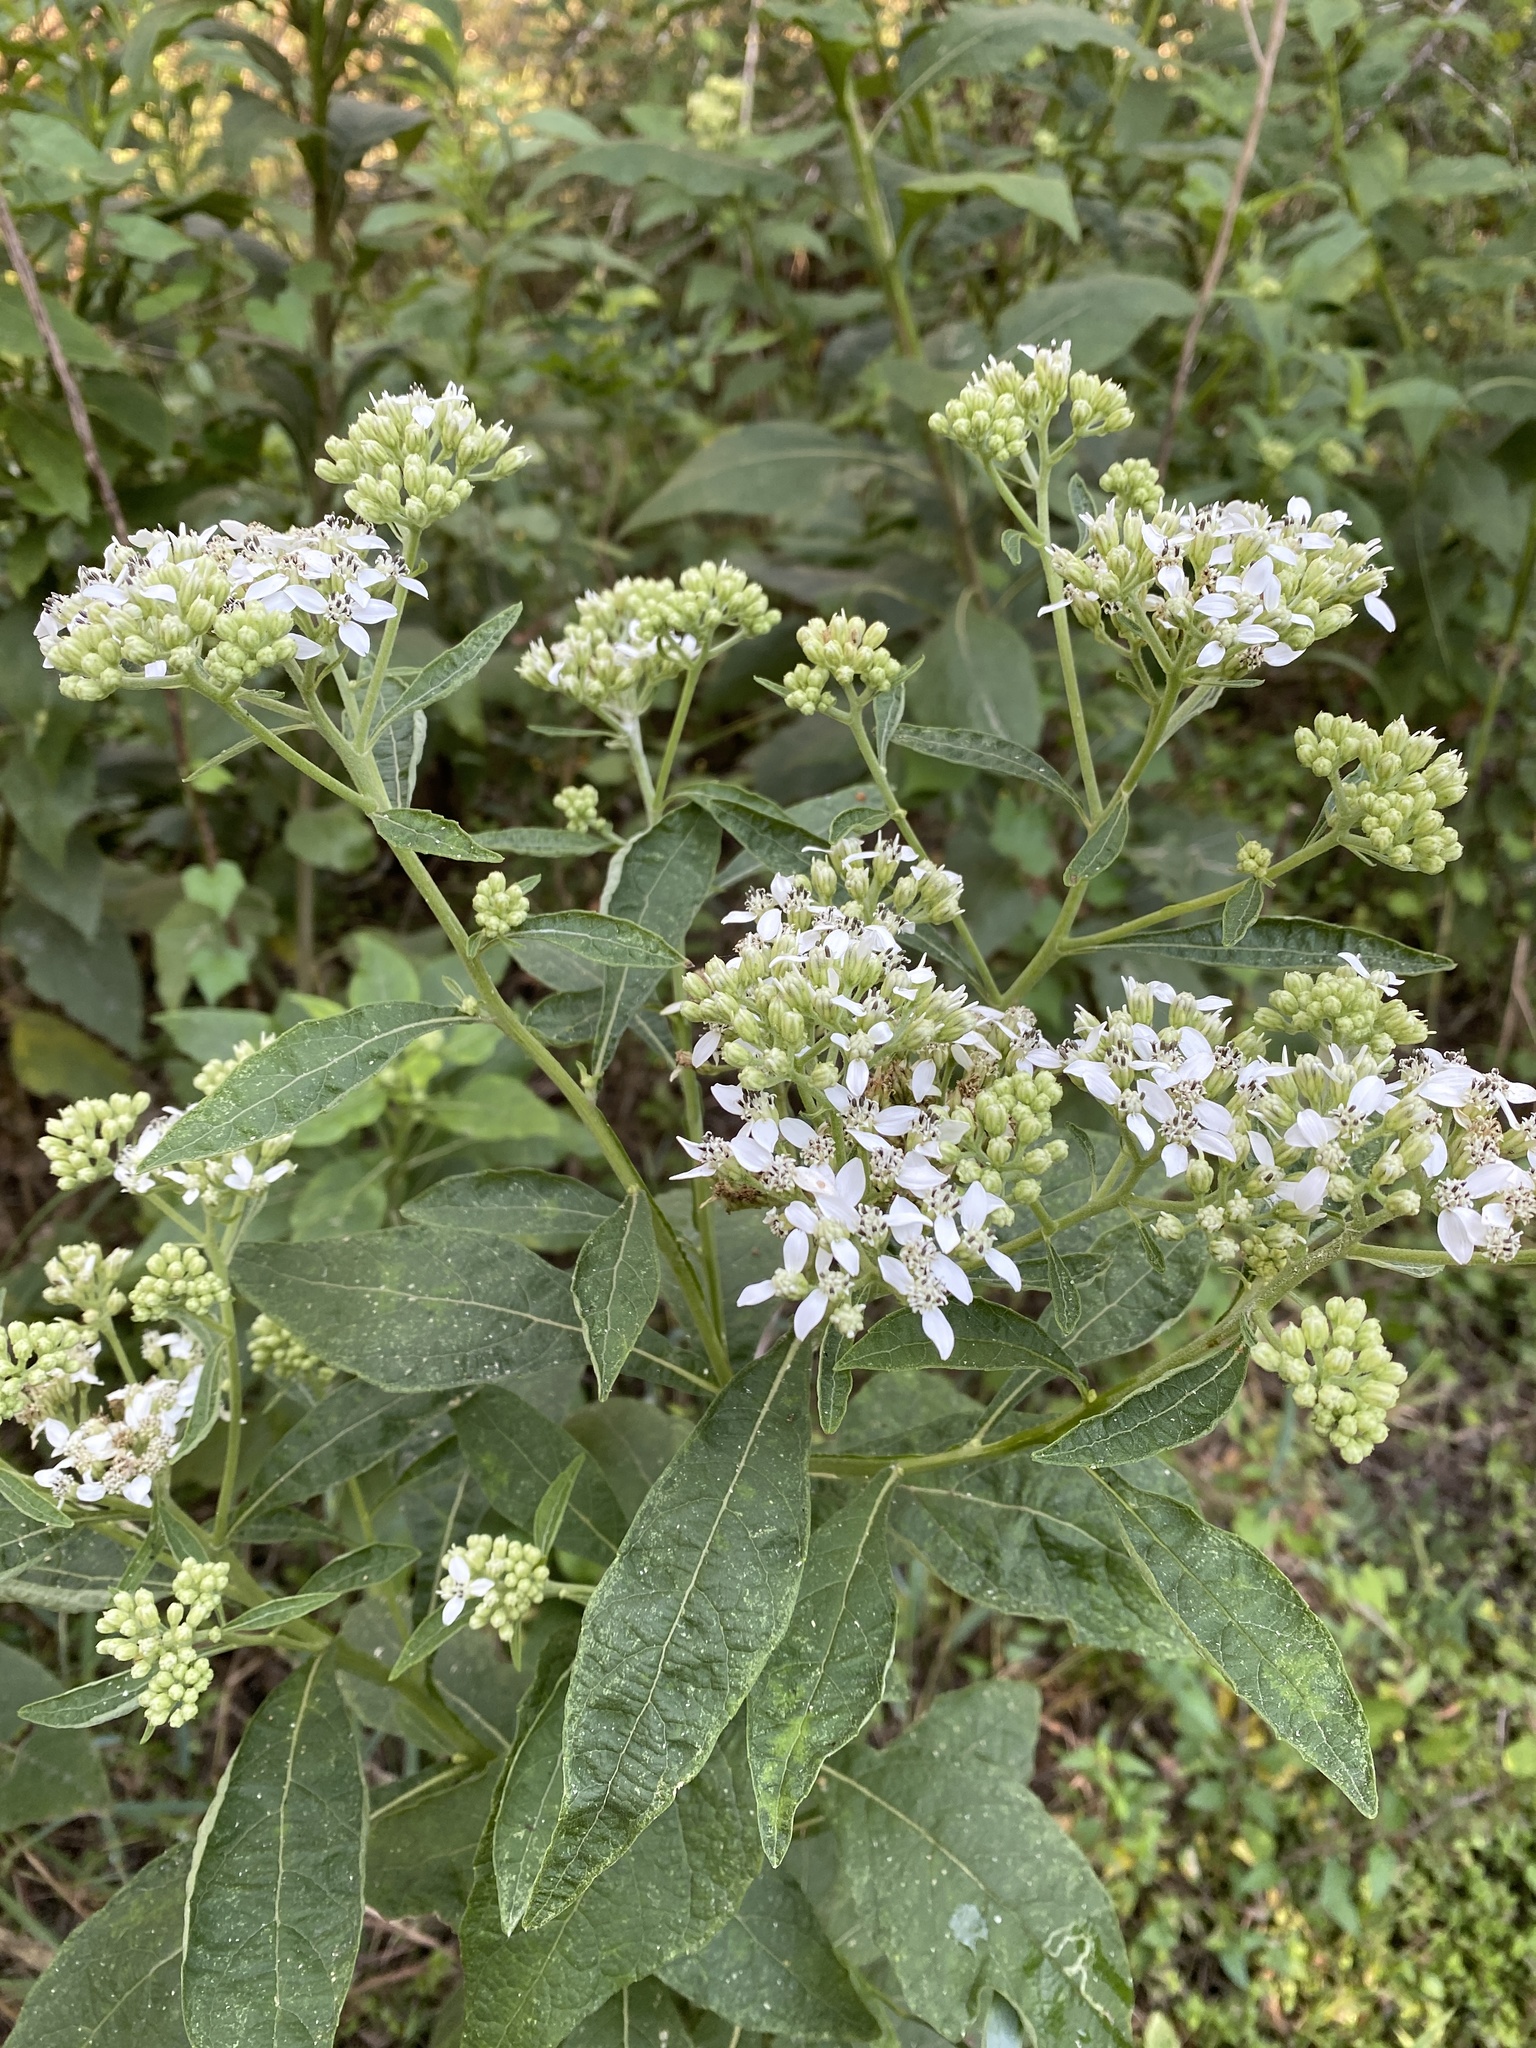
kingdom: Plantae
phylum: Tracheophyta
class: Magnoliopsida
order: Asterales
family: Asteraceae
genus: Verbesina
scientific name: Verbesina virginica
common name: Frostweed
